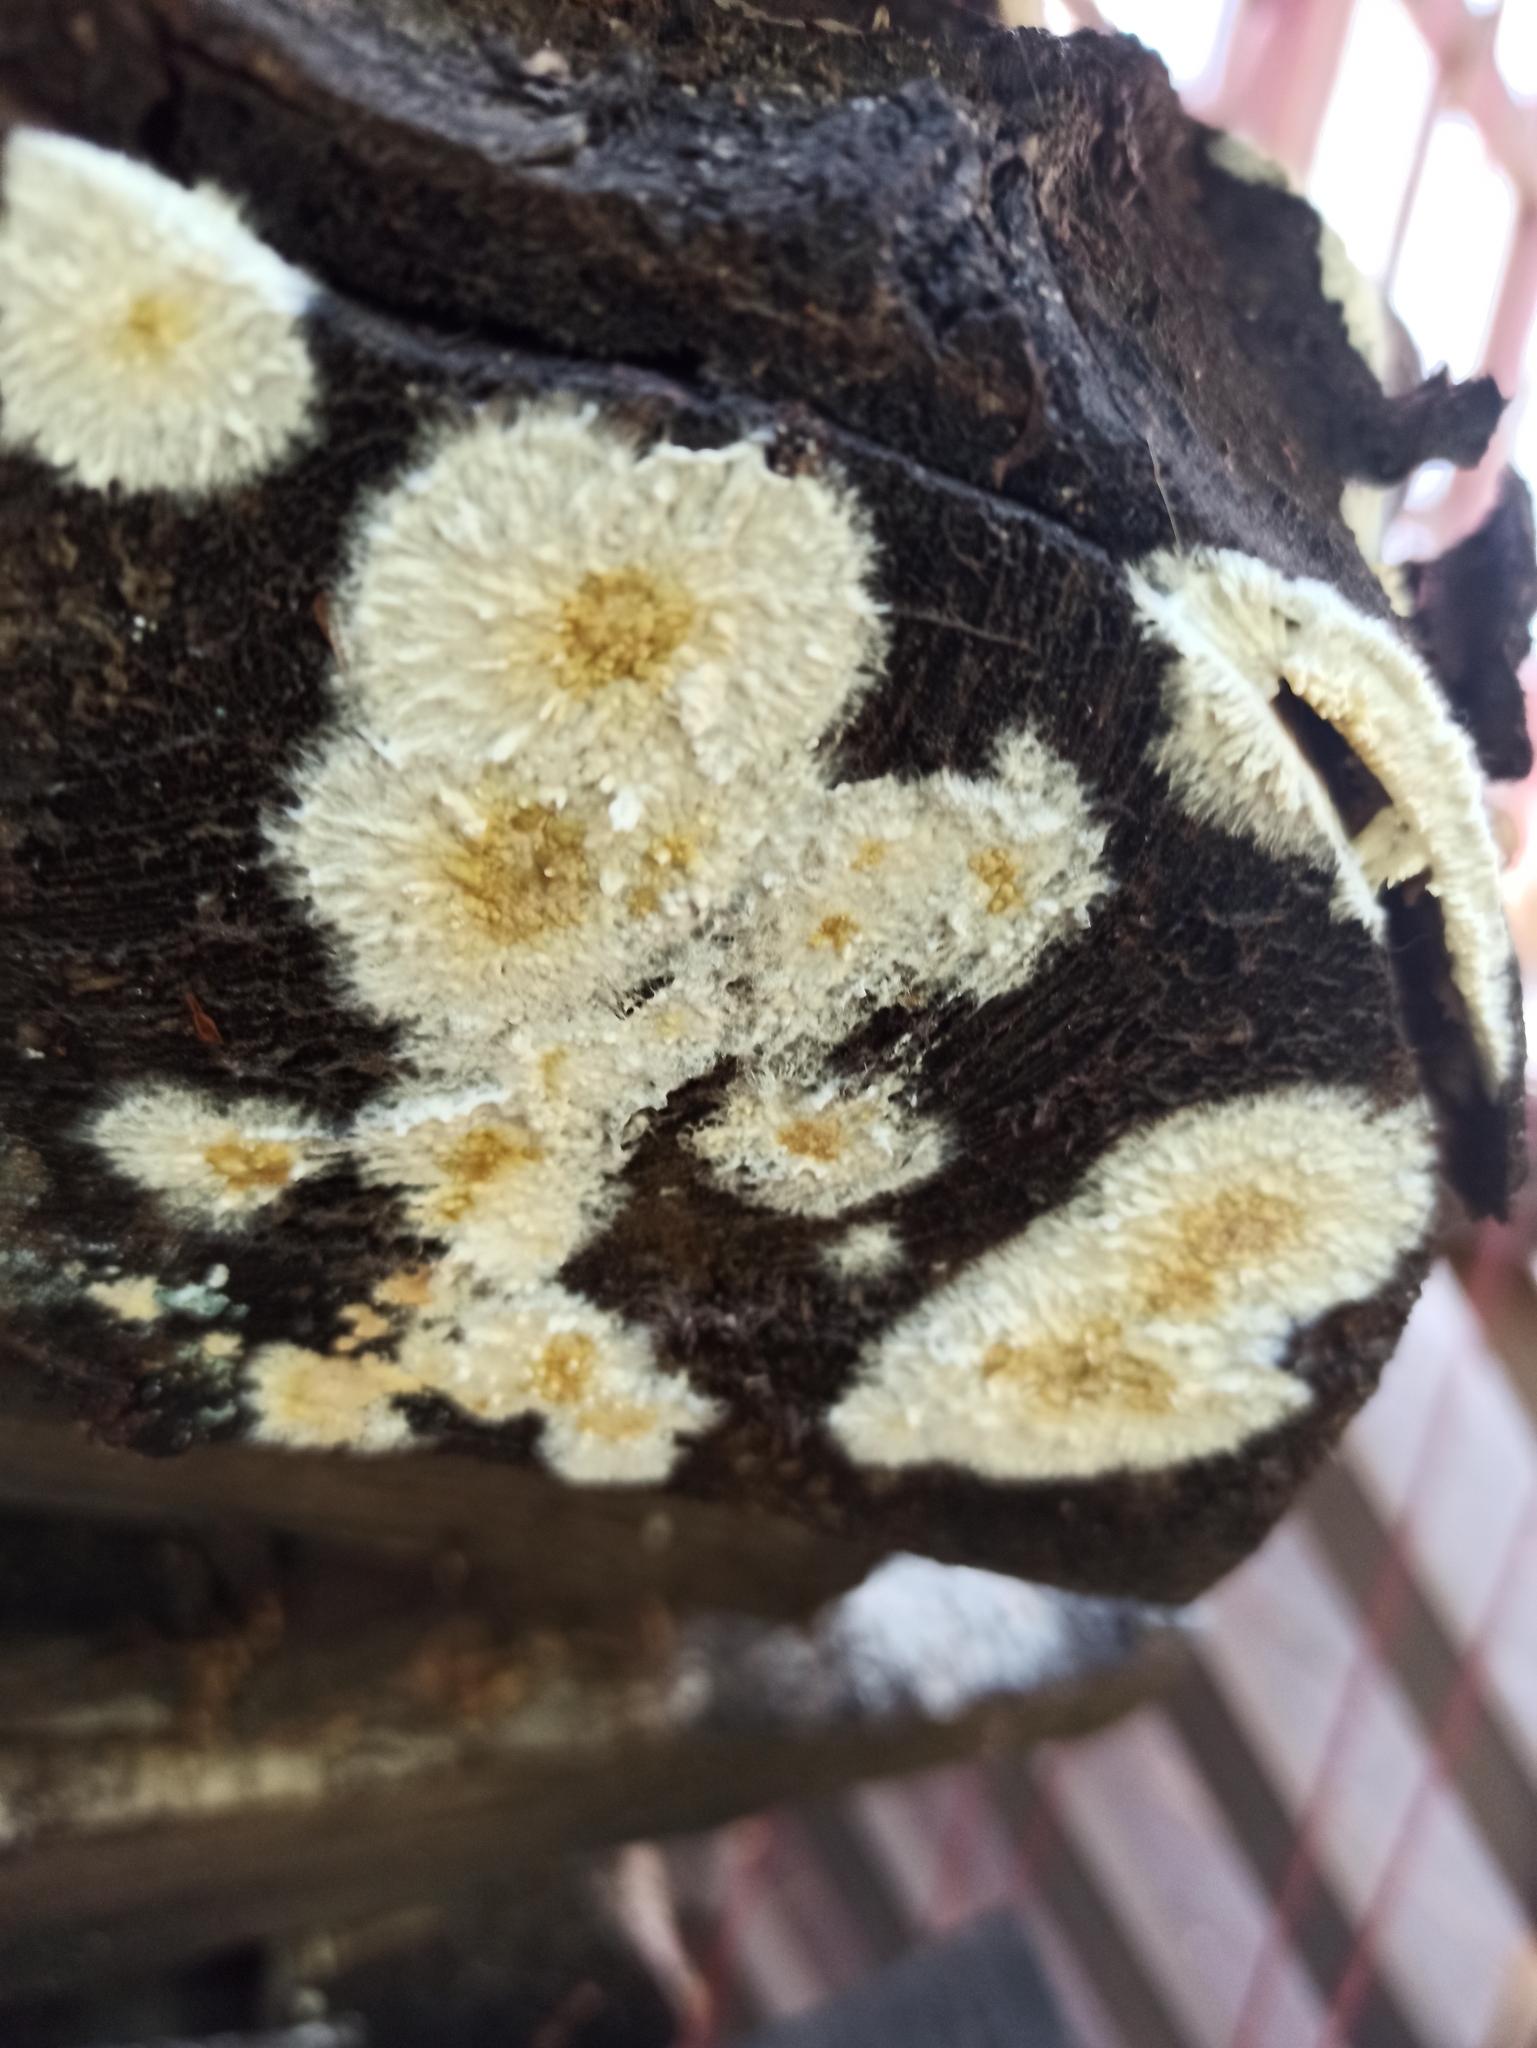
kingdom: Fungi
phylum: Basidiomycota
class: Agaricomycetes
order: Boletales
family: Coniophoraceae
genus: Coniophora
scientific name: Coniophora puteana
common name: Cellar fungus
